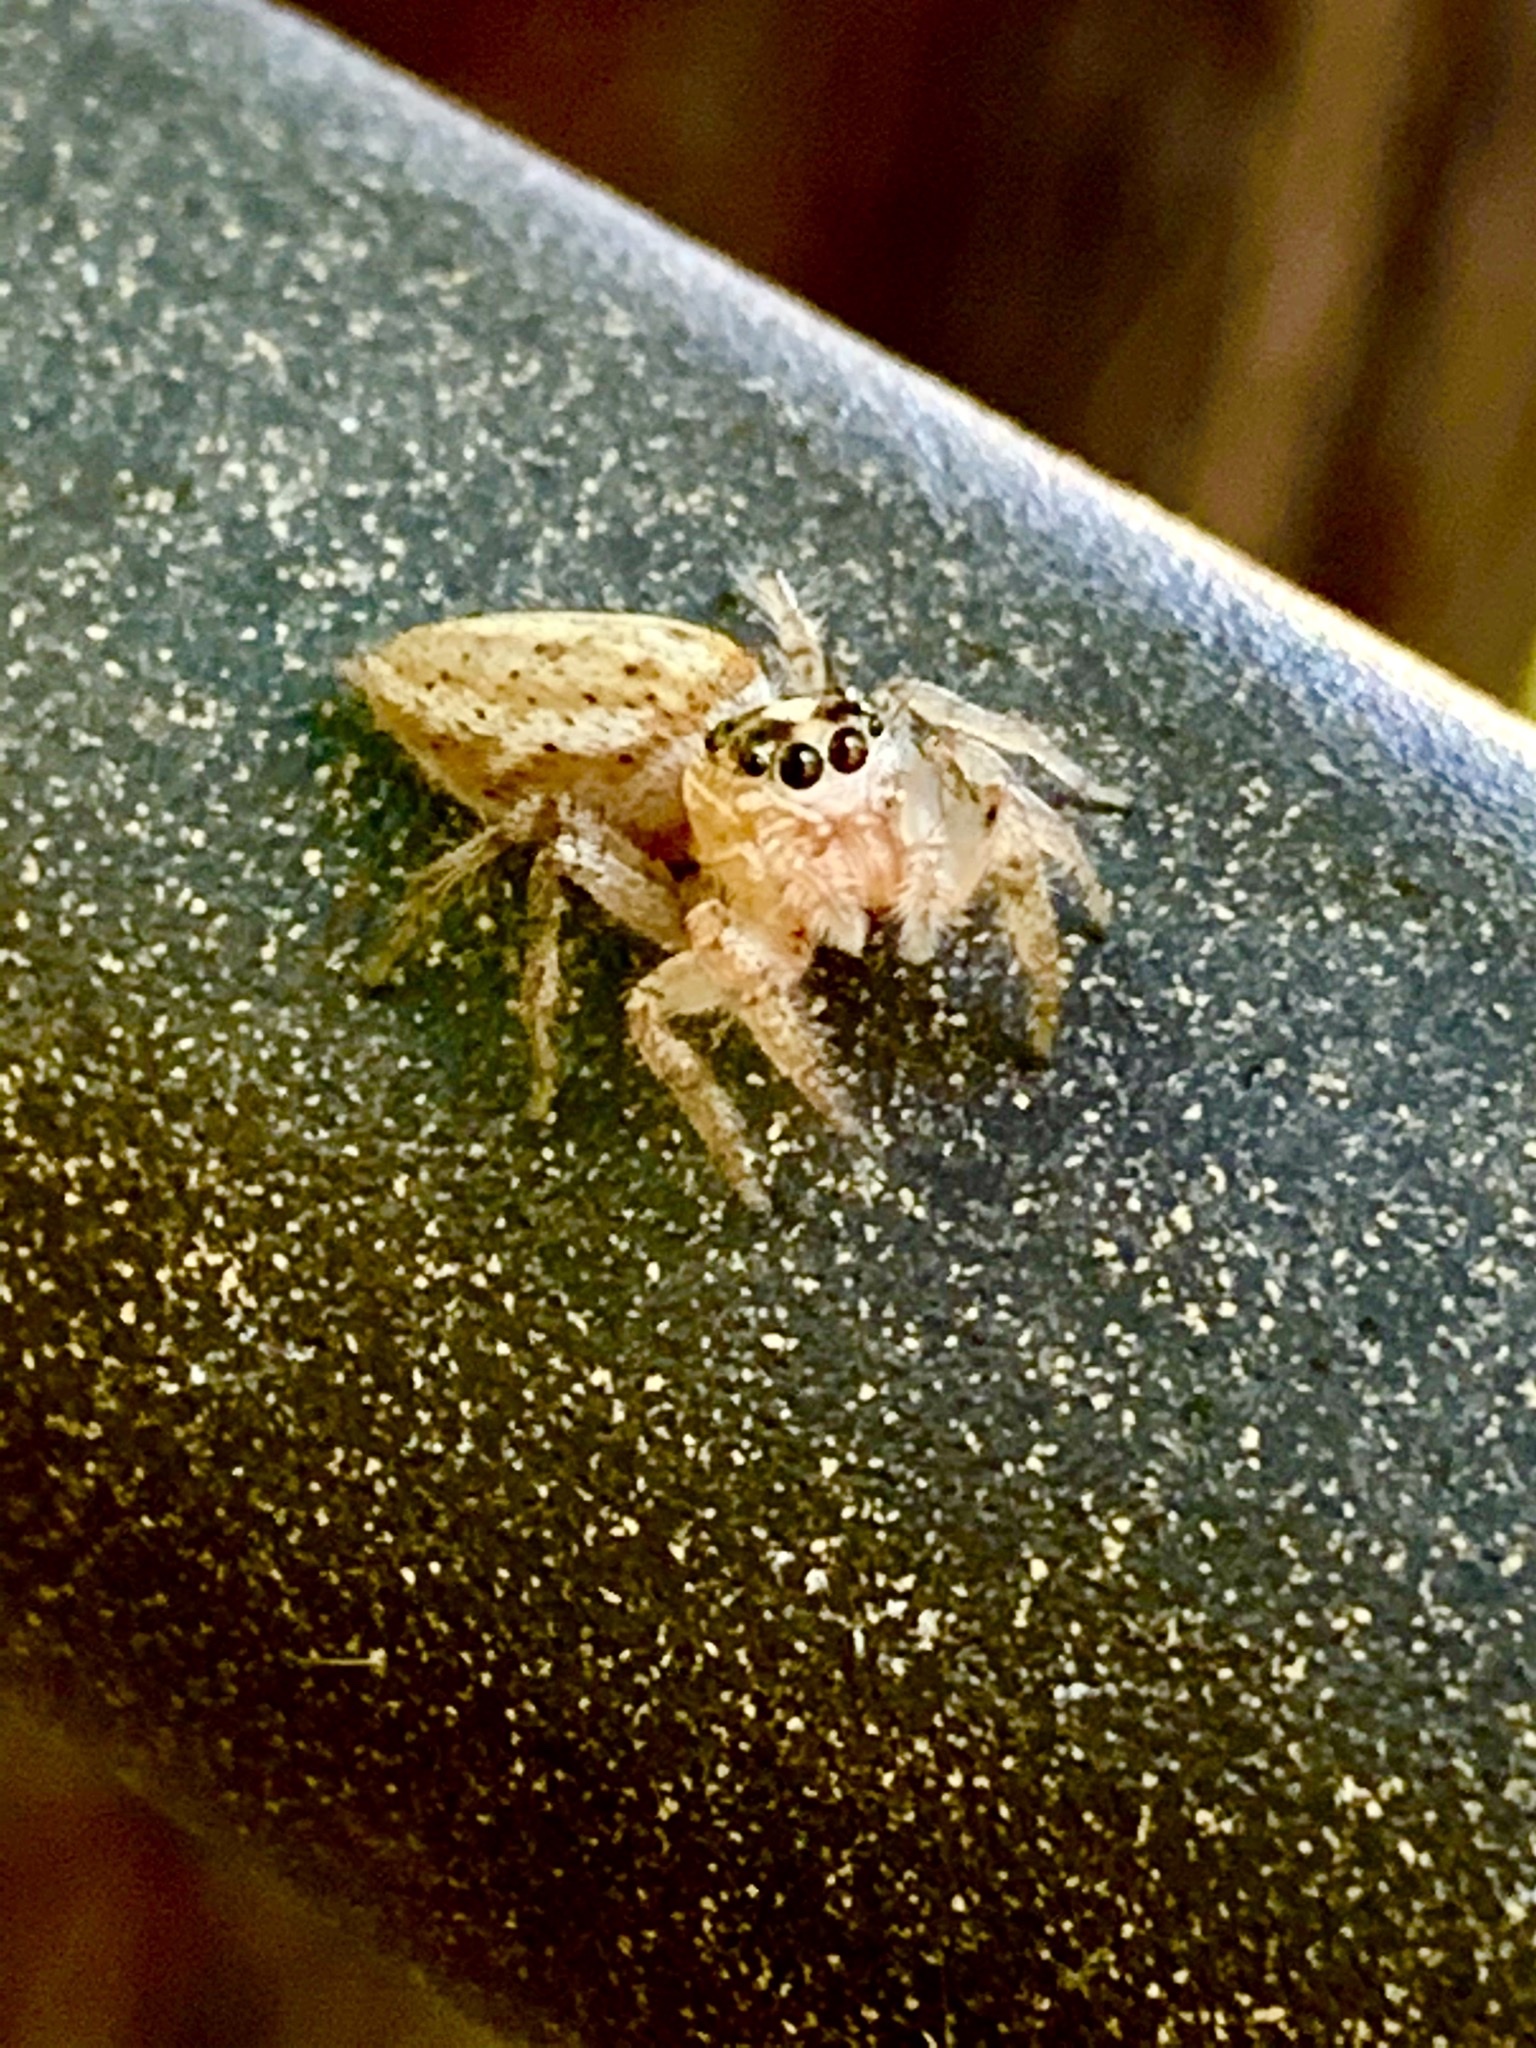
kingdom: Animalia
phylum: Arthropoda
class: Arachnida
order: Araneae
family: Salticidae
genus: Colonus
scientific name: Colonus hesperus
